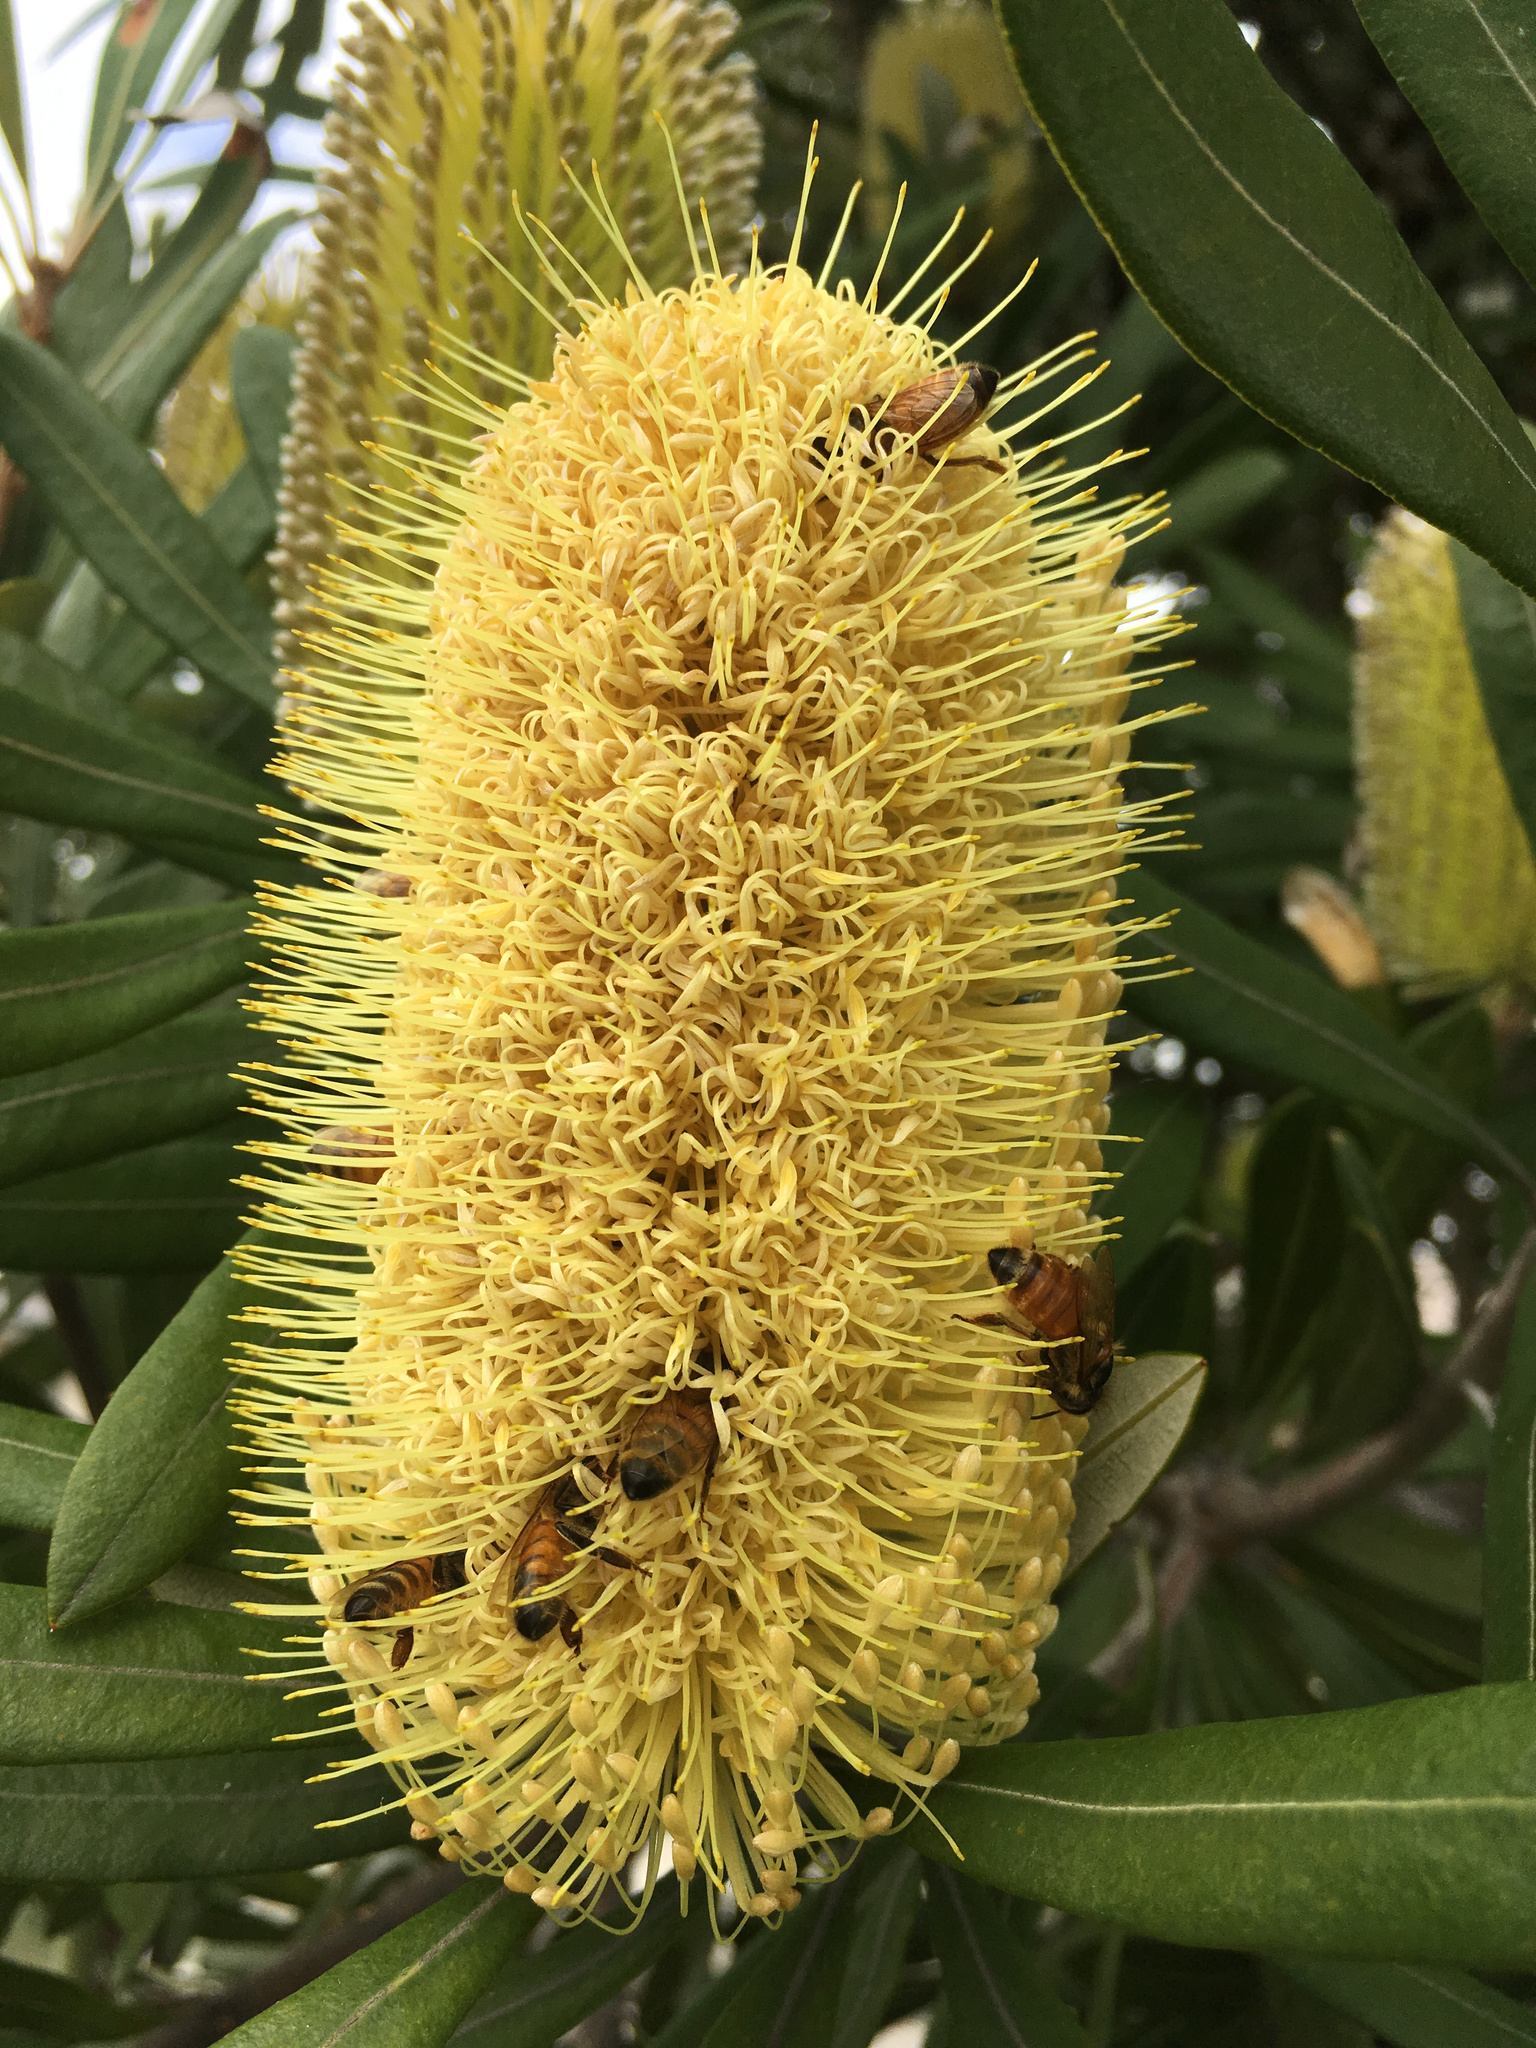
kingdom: Animalia
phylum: Arthropoda
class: Insecta
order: Hymenoptera
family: Apidae
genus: Apis
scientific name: Apis mellifera
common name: Honey bee
